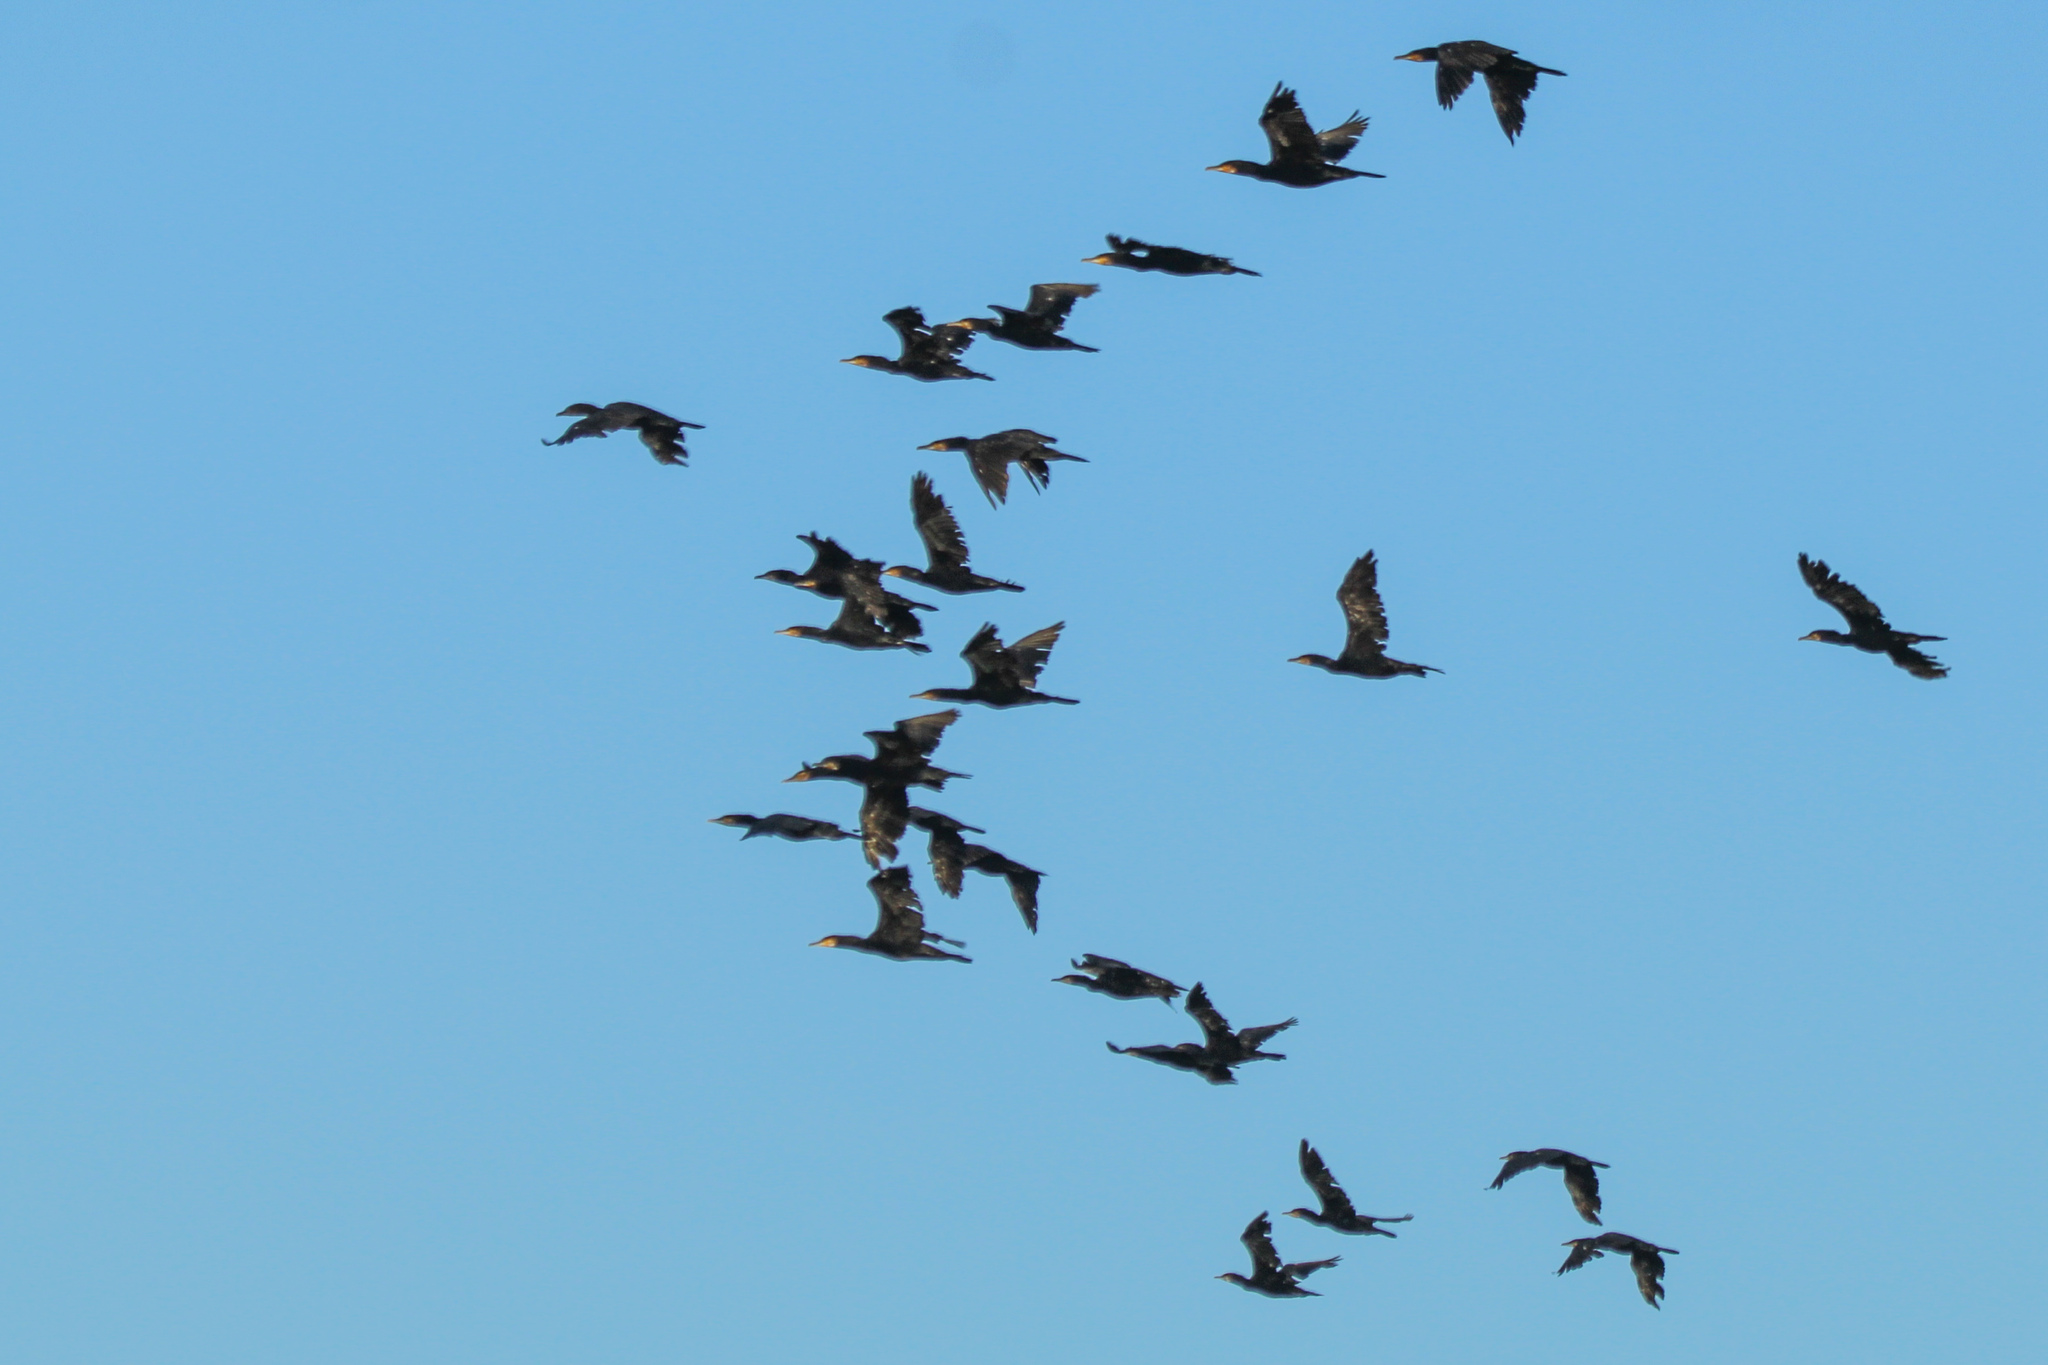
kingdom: Animalia
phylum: Chordata
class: Aves
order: Suliformes
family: Phalacrocoracidae
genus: Phalacrocorax
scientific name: Phalacrocorax carbo
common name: Great cormorant
